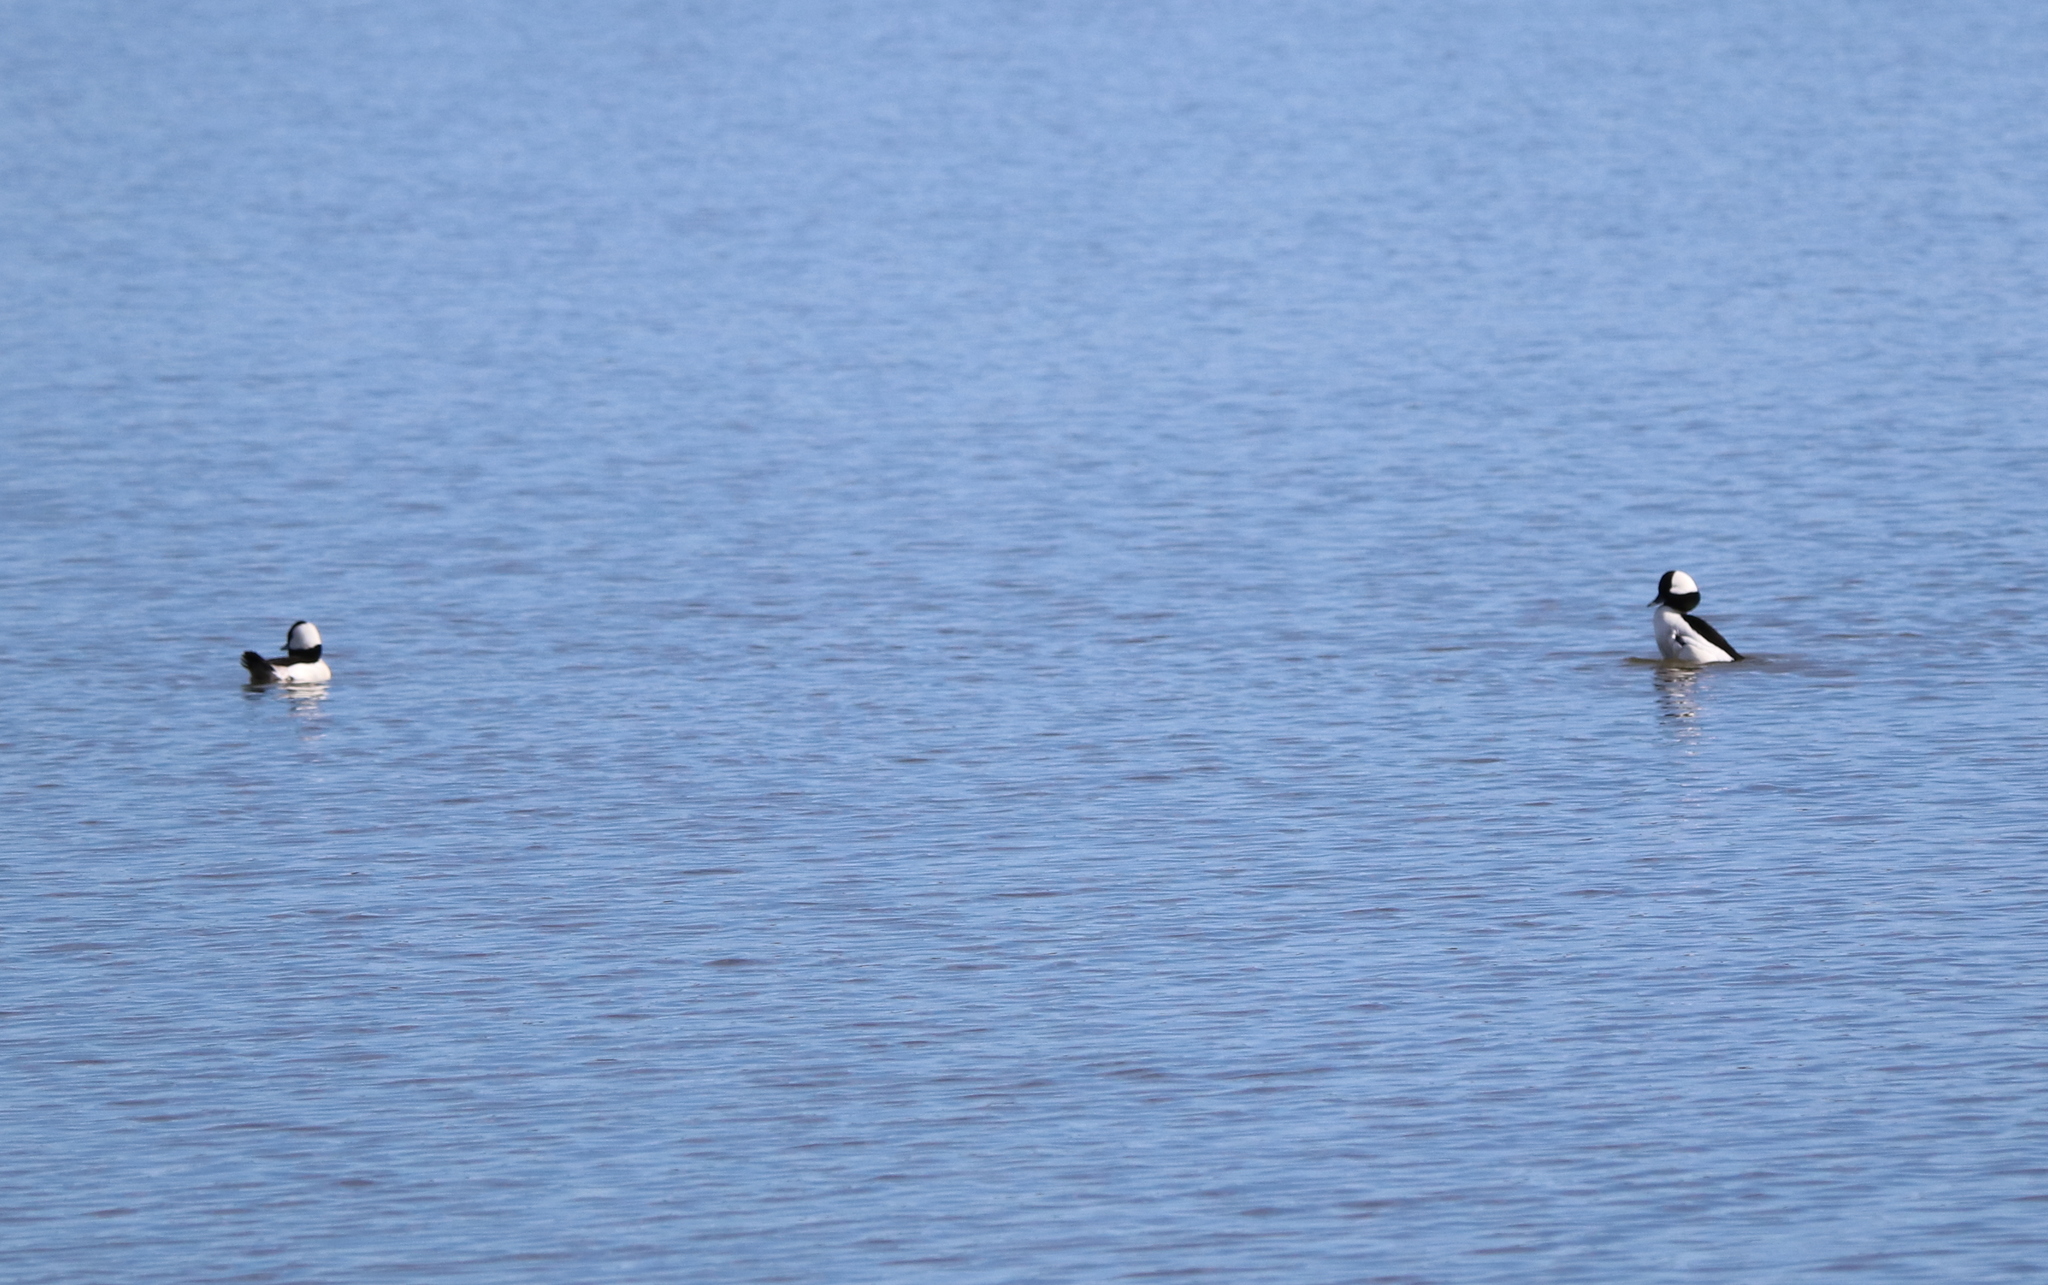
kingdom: Animalia
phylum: Chordata
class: Aves
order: Anseriformes
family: Anatidae
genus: Bucephala
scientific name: Bucephala albeola
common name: Bufflehead
